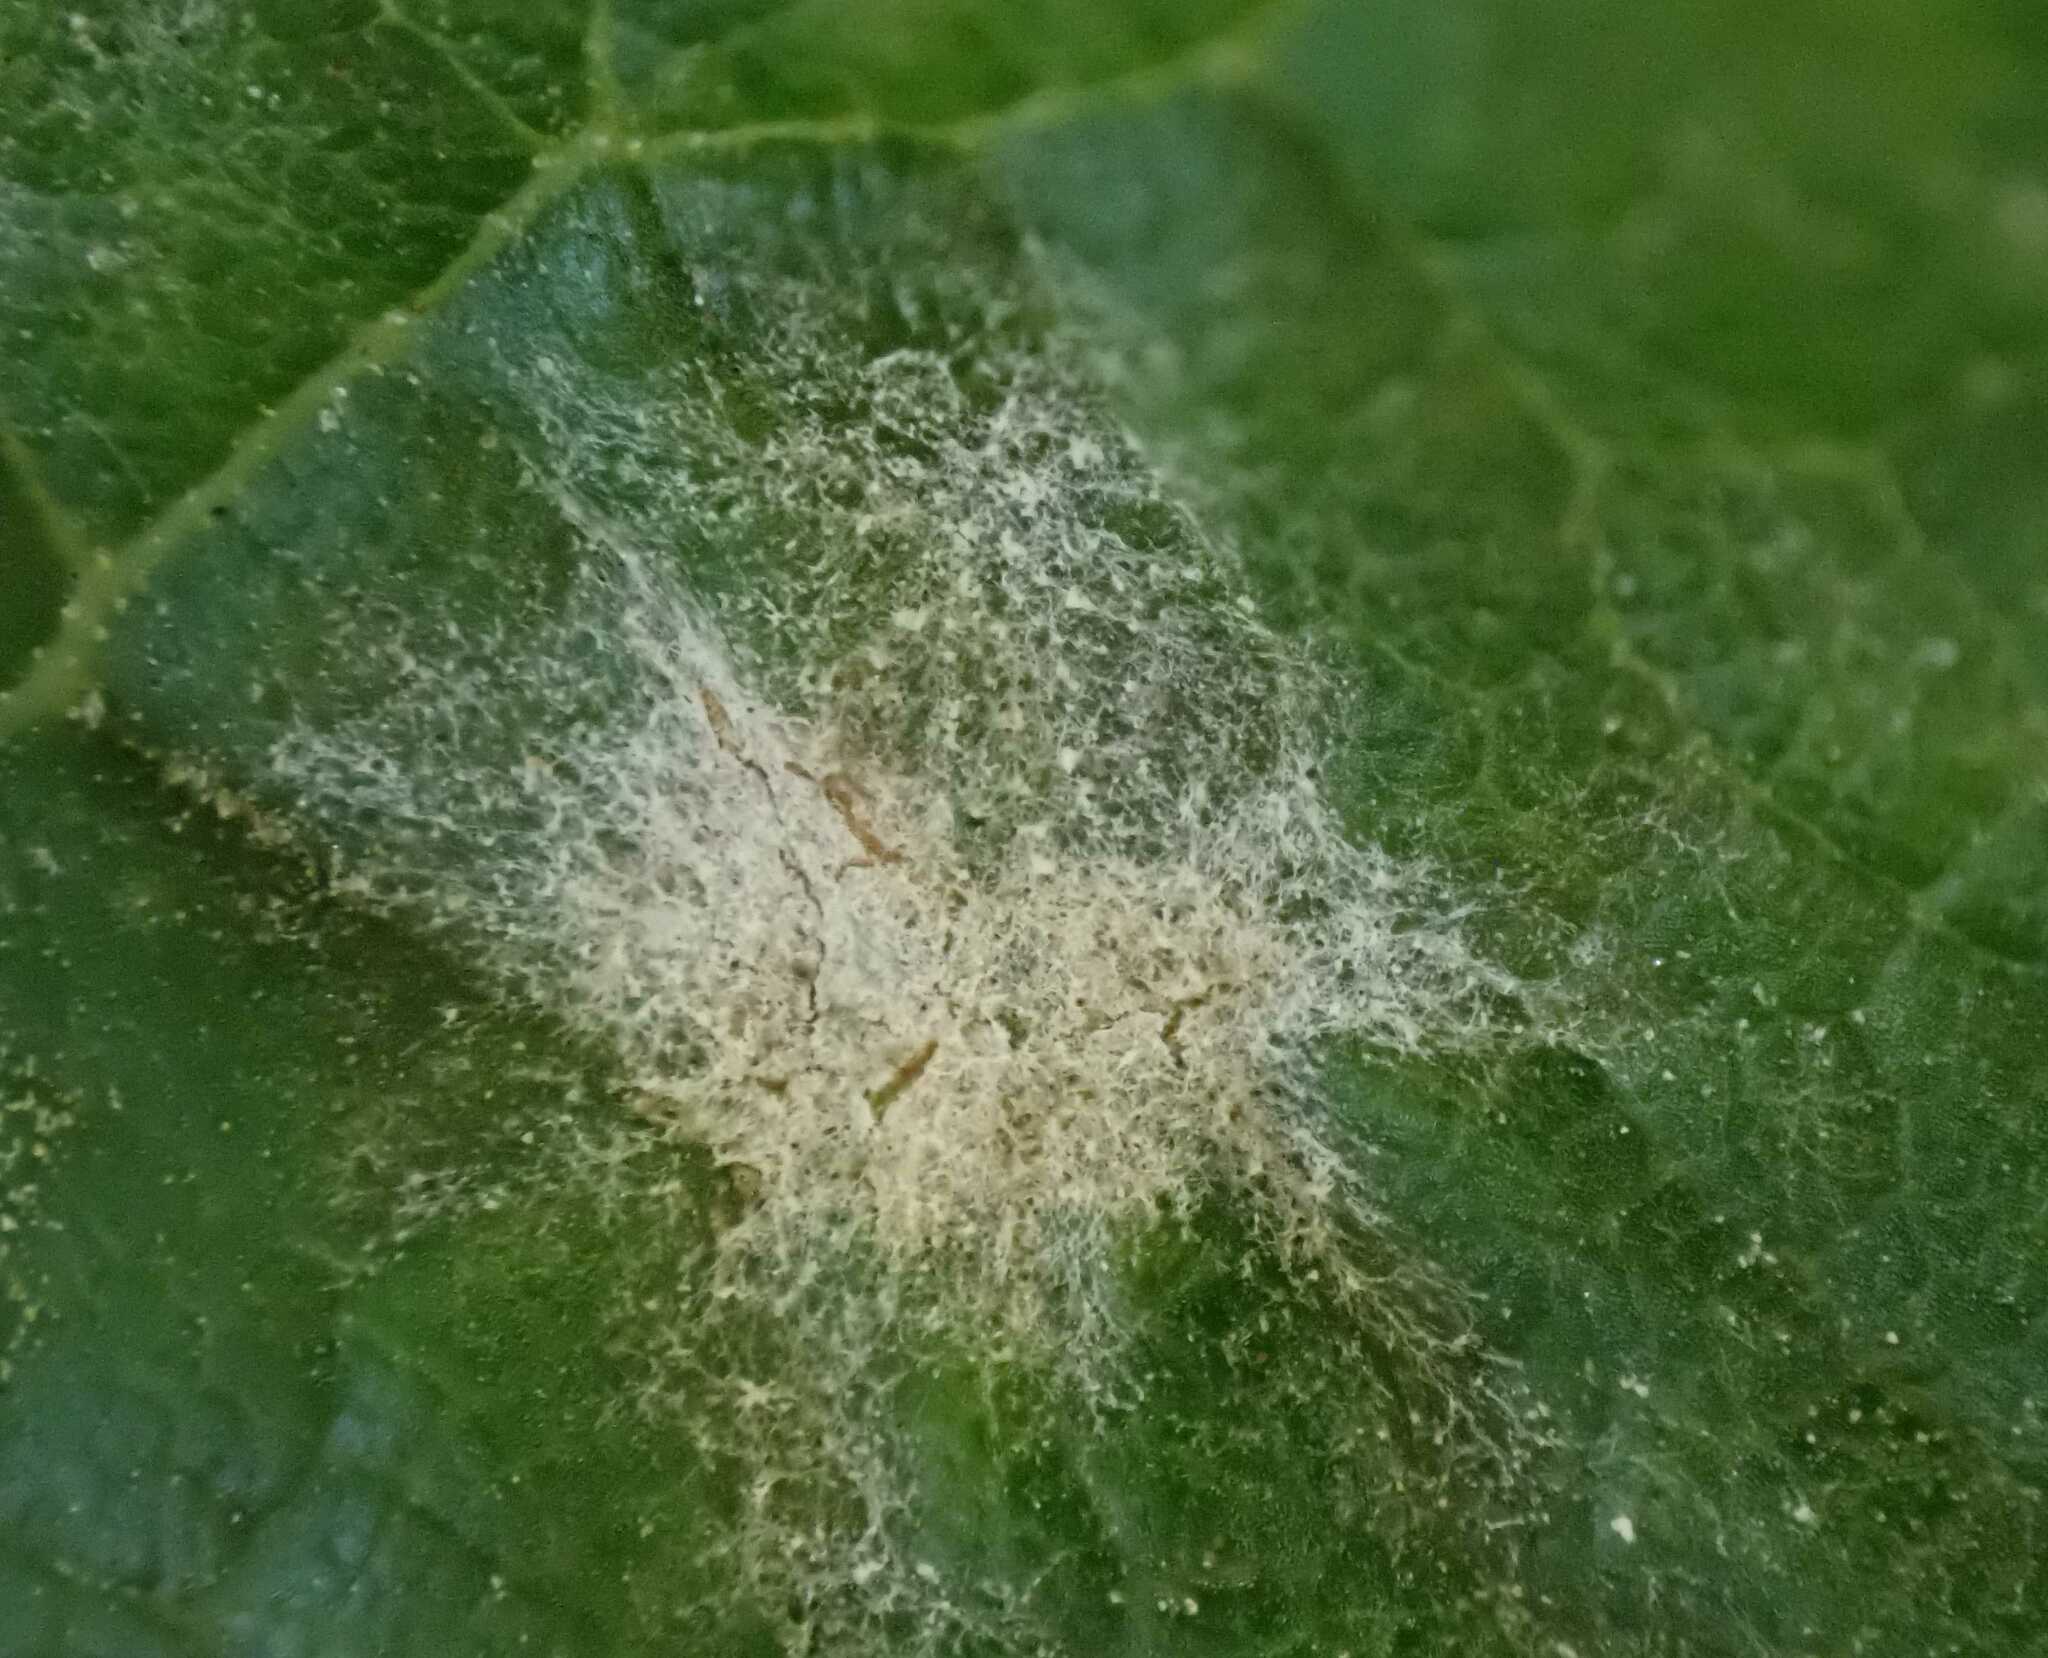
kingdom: Fungi
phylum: Ascomycota
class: Leotiomycetes
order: Helotiales
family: Erysiphaceae
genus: Sawadaea
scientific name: Sawadaea bicornis
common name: Maple mildew
